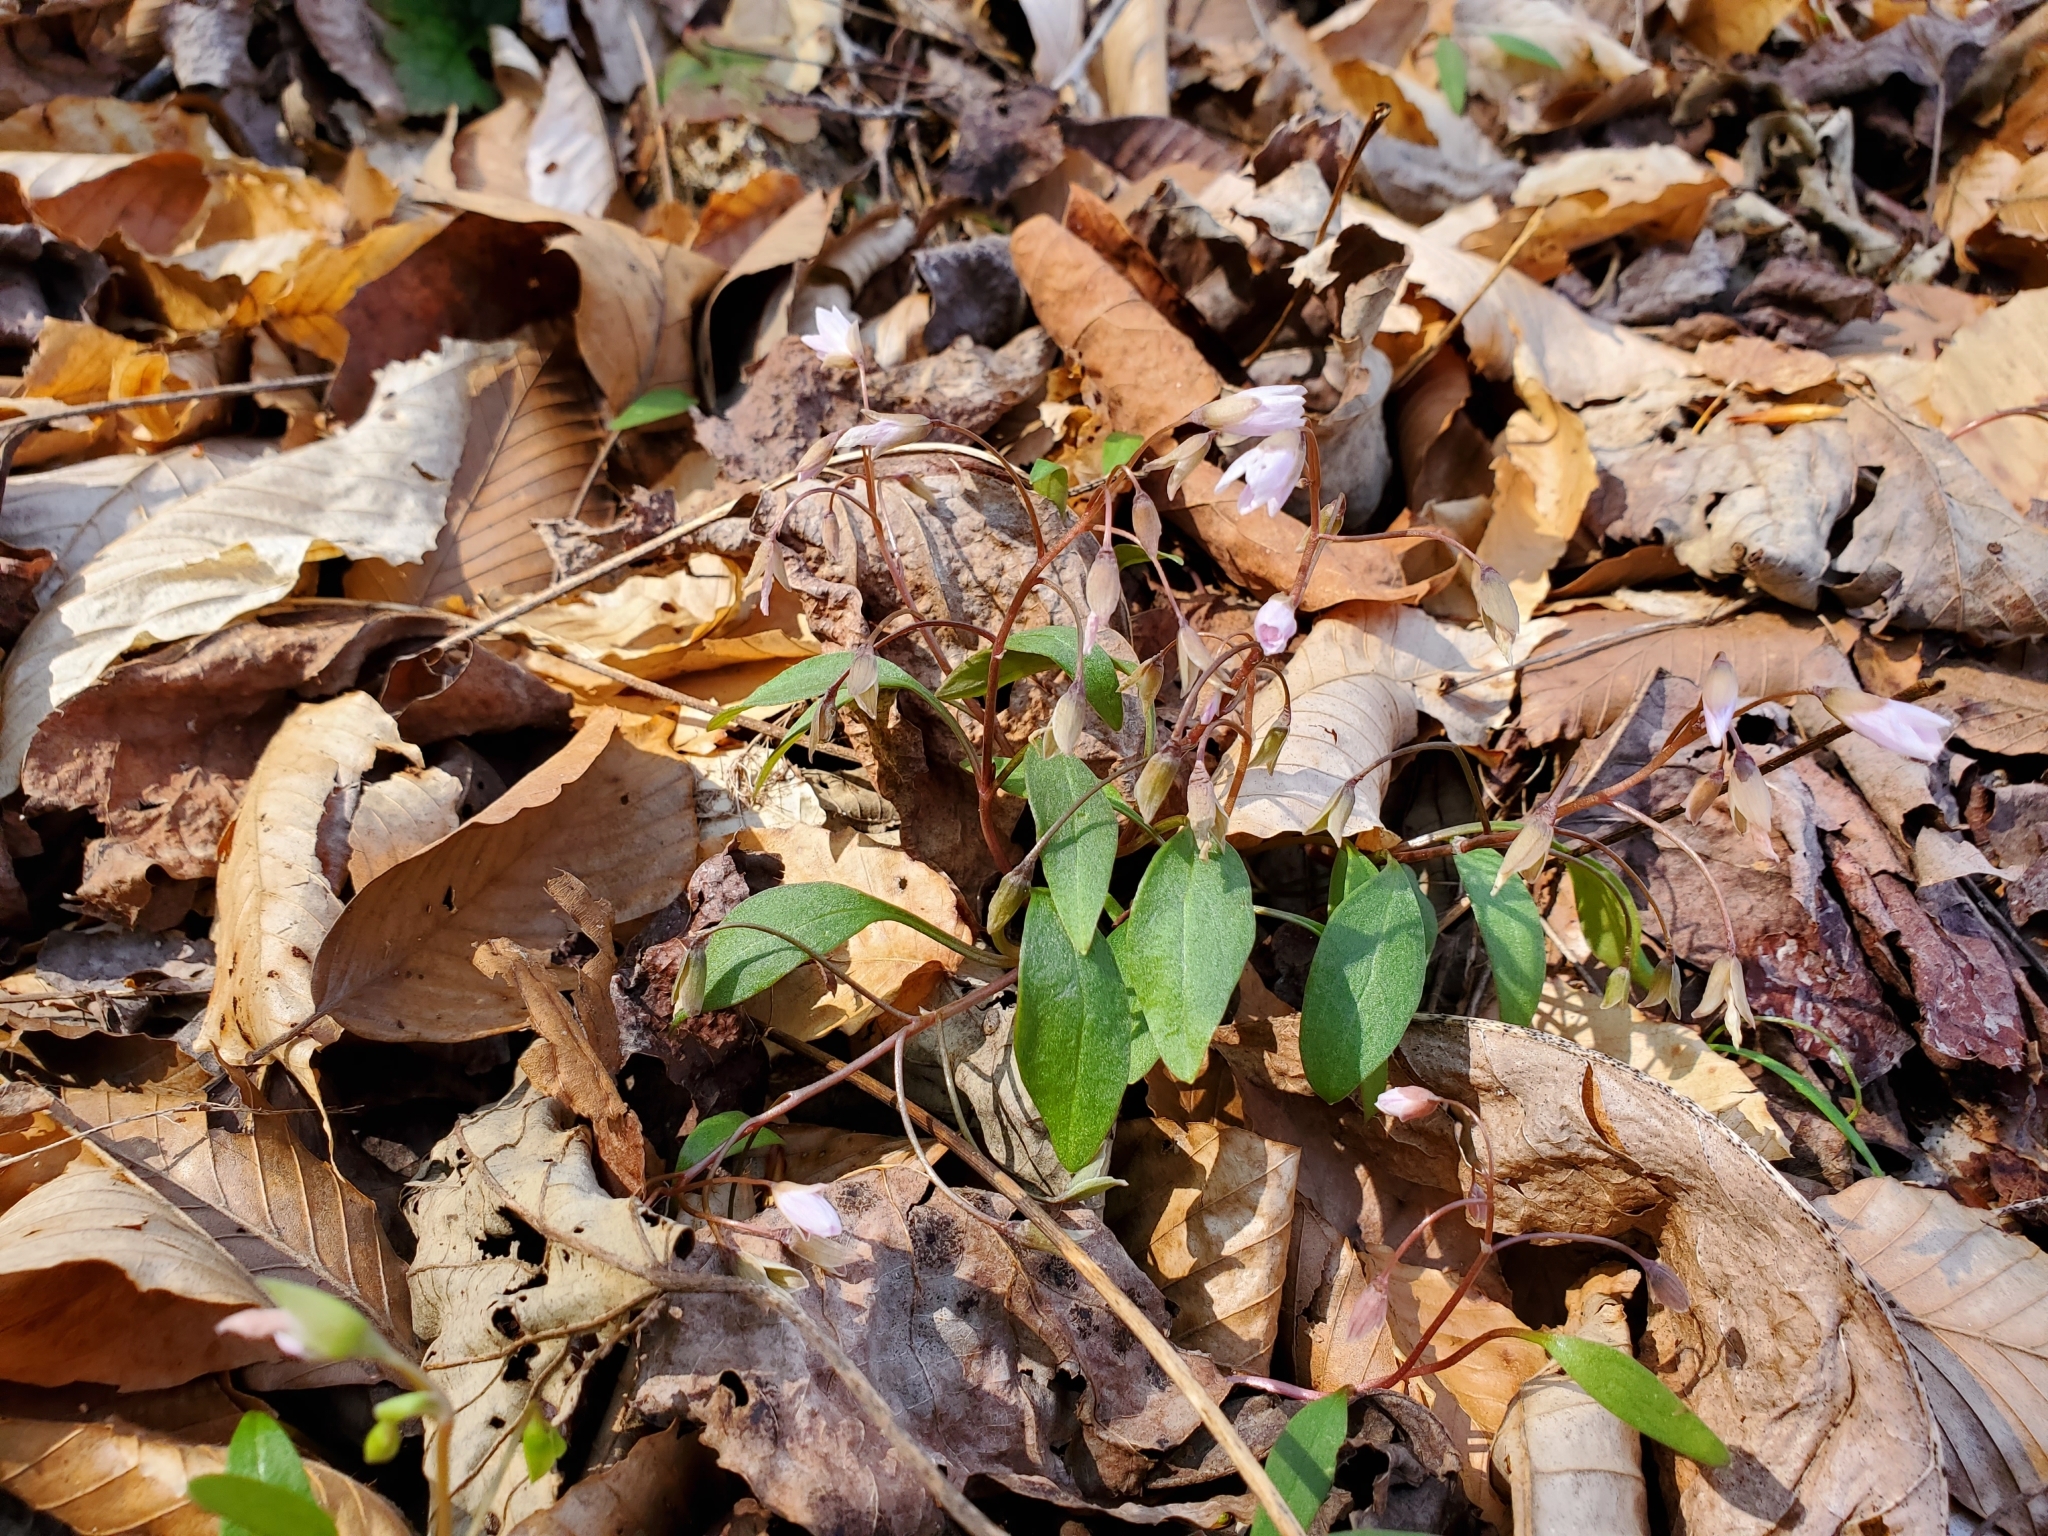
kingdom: Plantae
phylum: Tracheophyta
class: Magnoliopsida
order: Caryophyllales
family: Montiaceae
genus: Claytonia
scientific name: Claytonia caroliniana
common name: Carolina spring beauty
